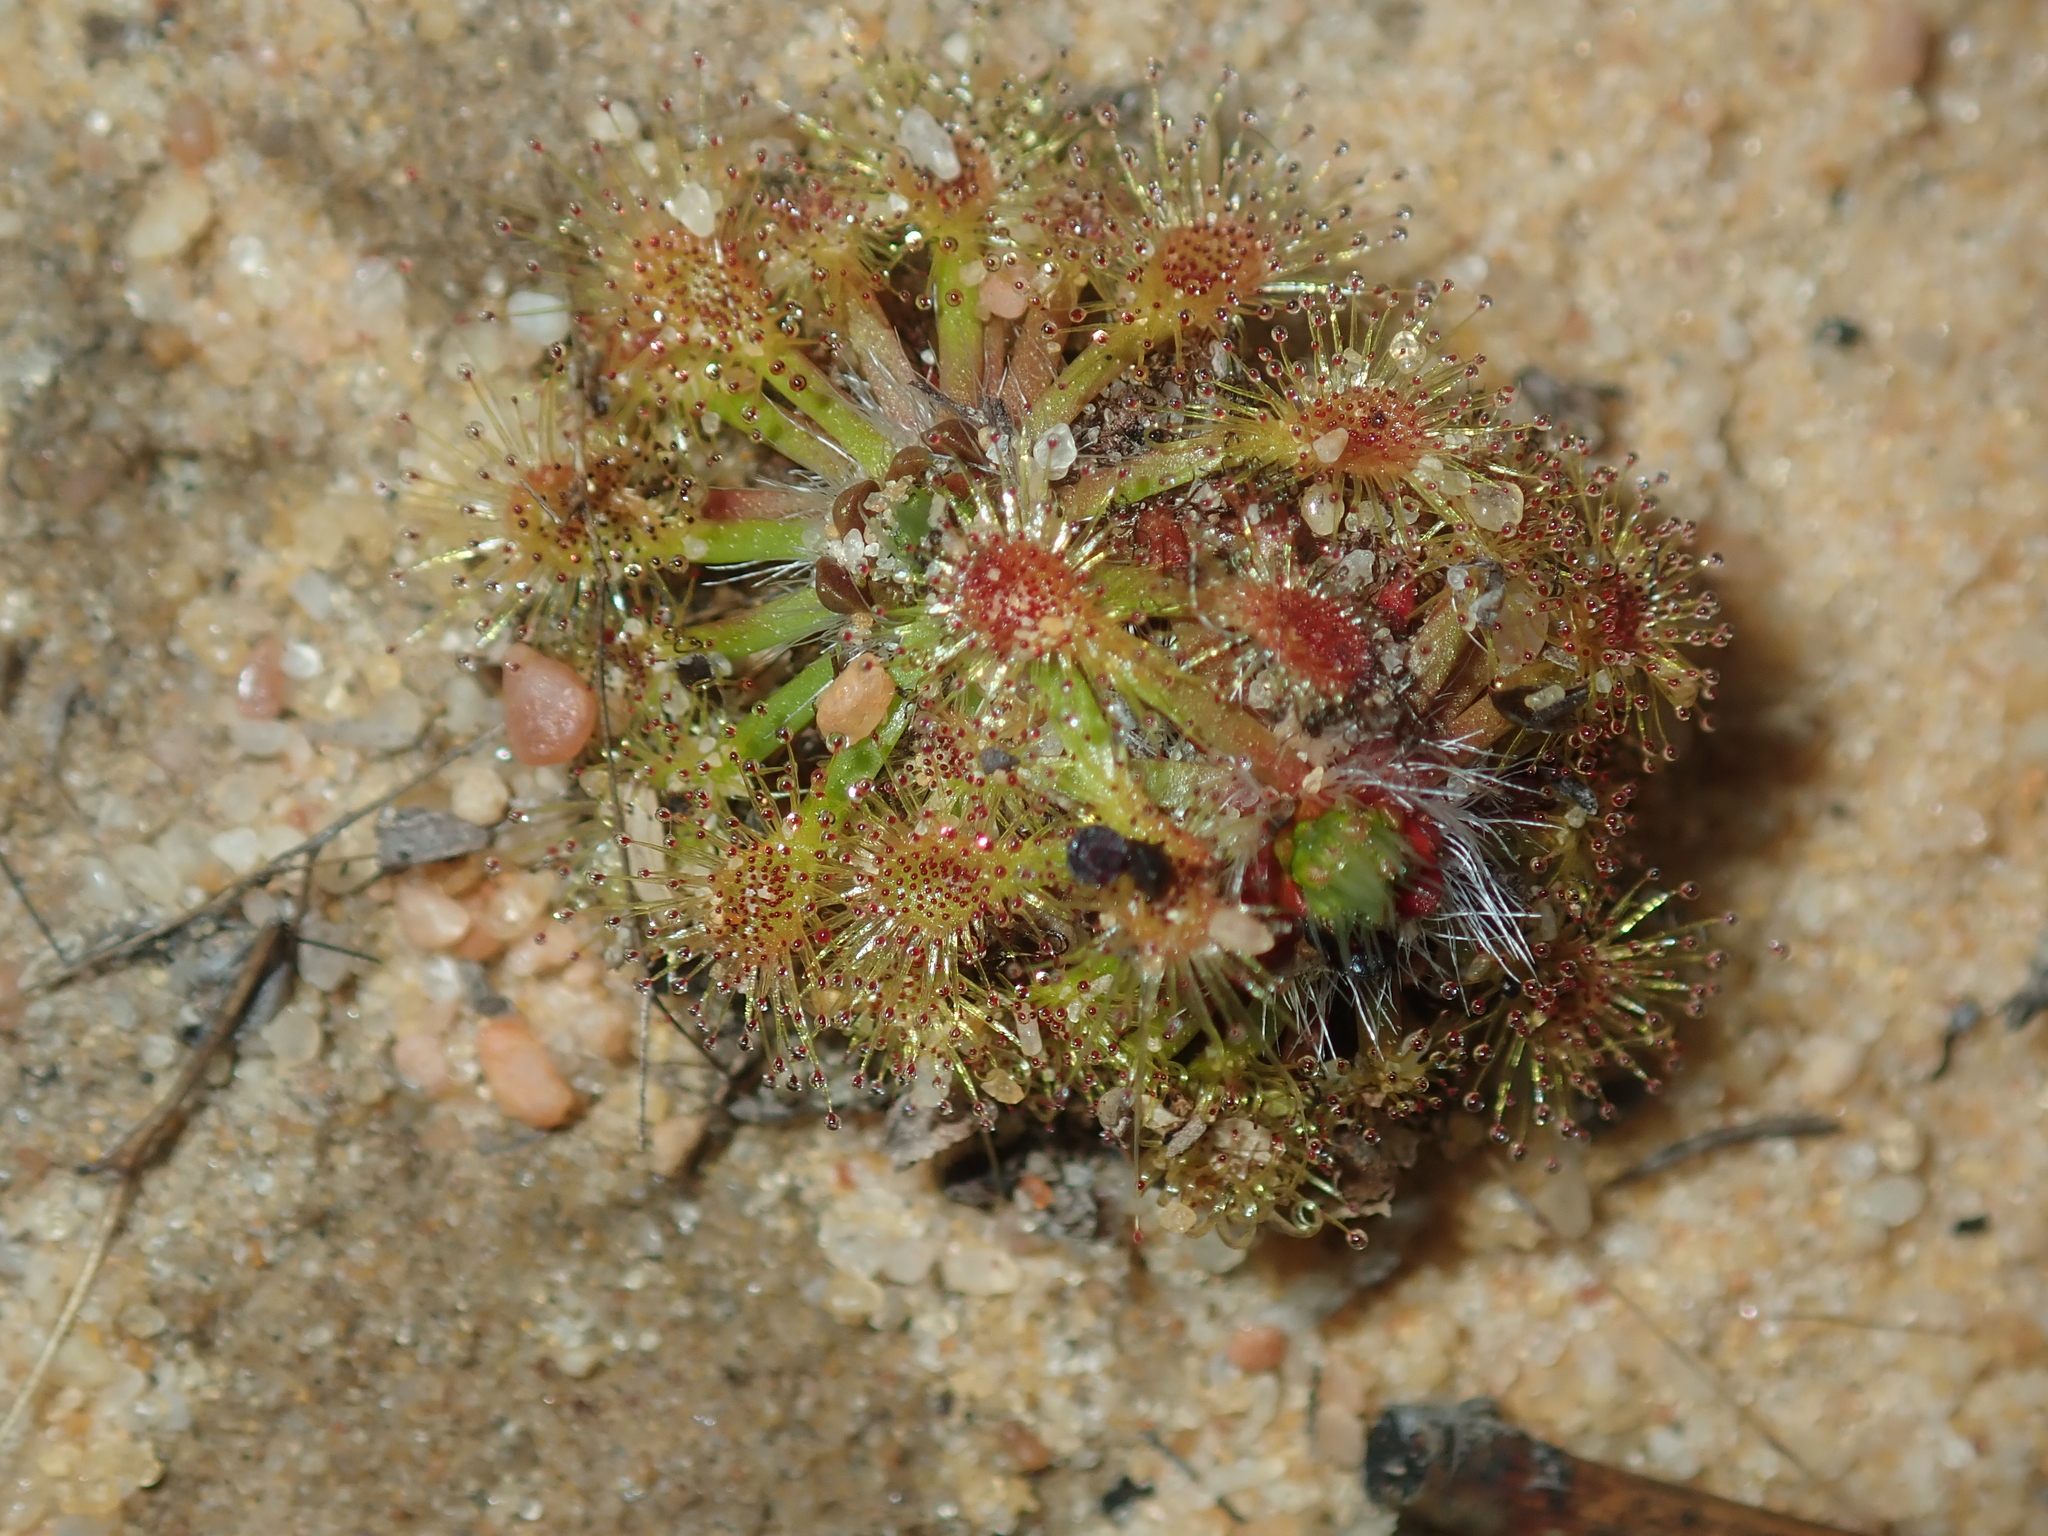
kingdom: Plantae
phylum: Tracheophyta
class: Magnoliopsida
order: Caryophyllales
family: Droseraceae
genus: Drosera
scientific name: Drosera nitidula
